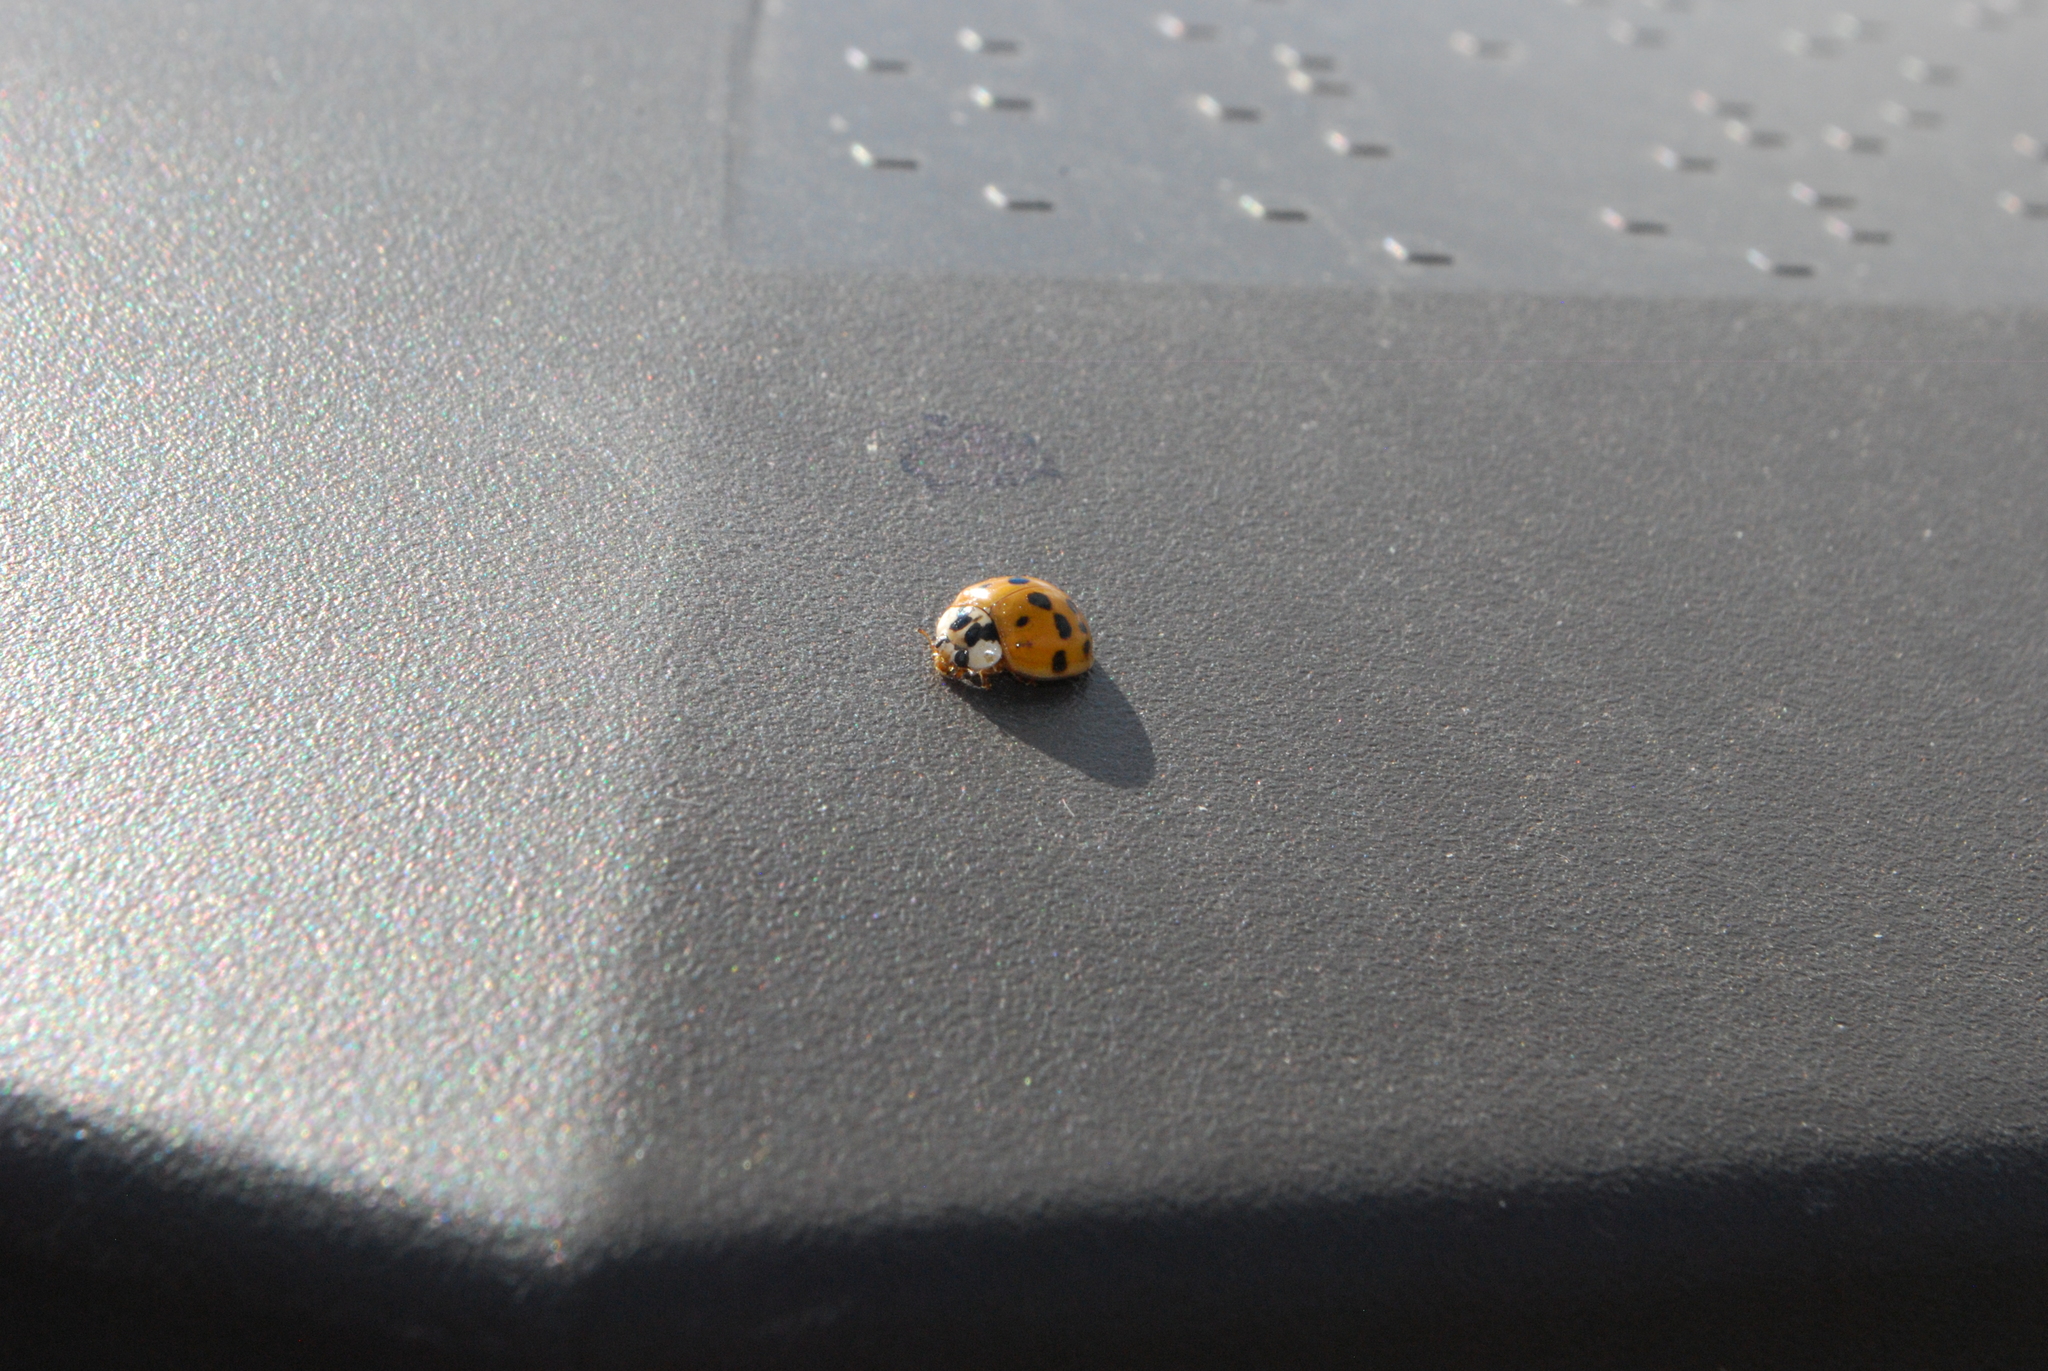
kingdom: Animalia
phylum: Arthropoda
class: Insecta
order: Coleoptera
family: Coccinellidae
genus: Harmonia
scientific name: Harmonia axyridis
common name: Harlequin ladybird
